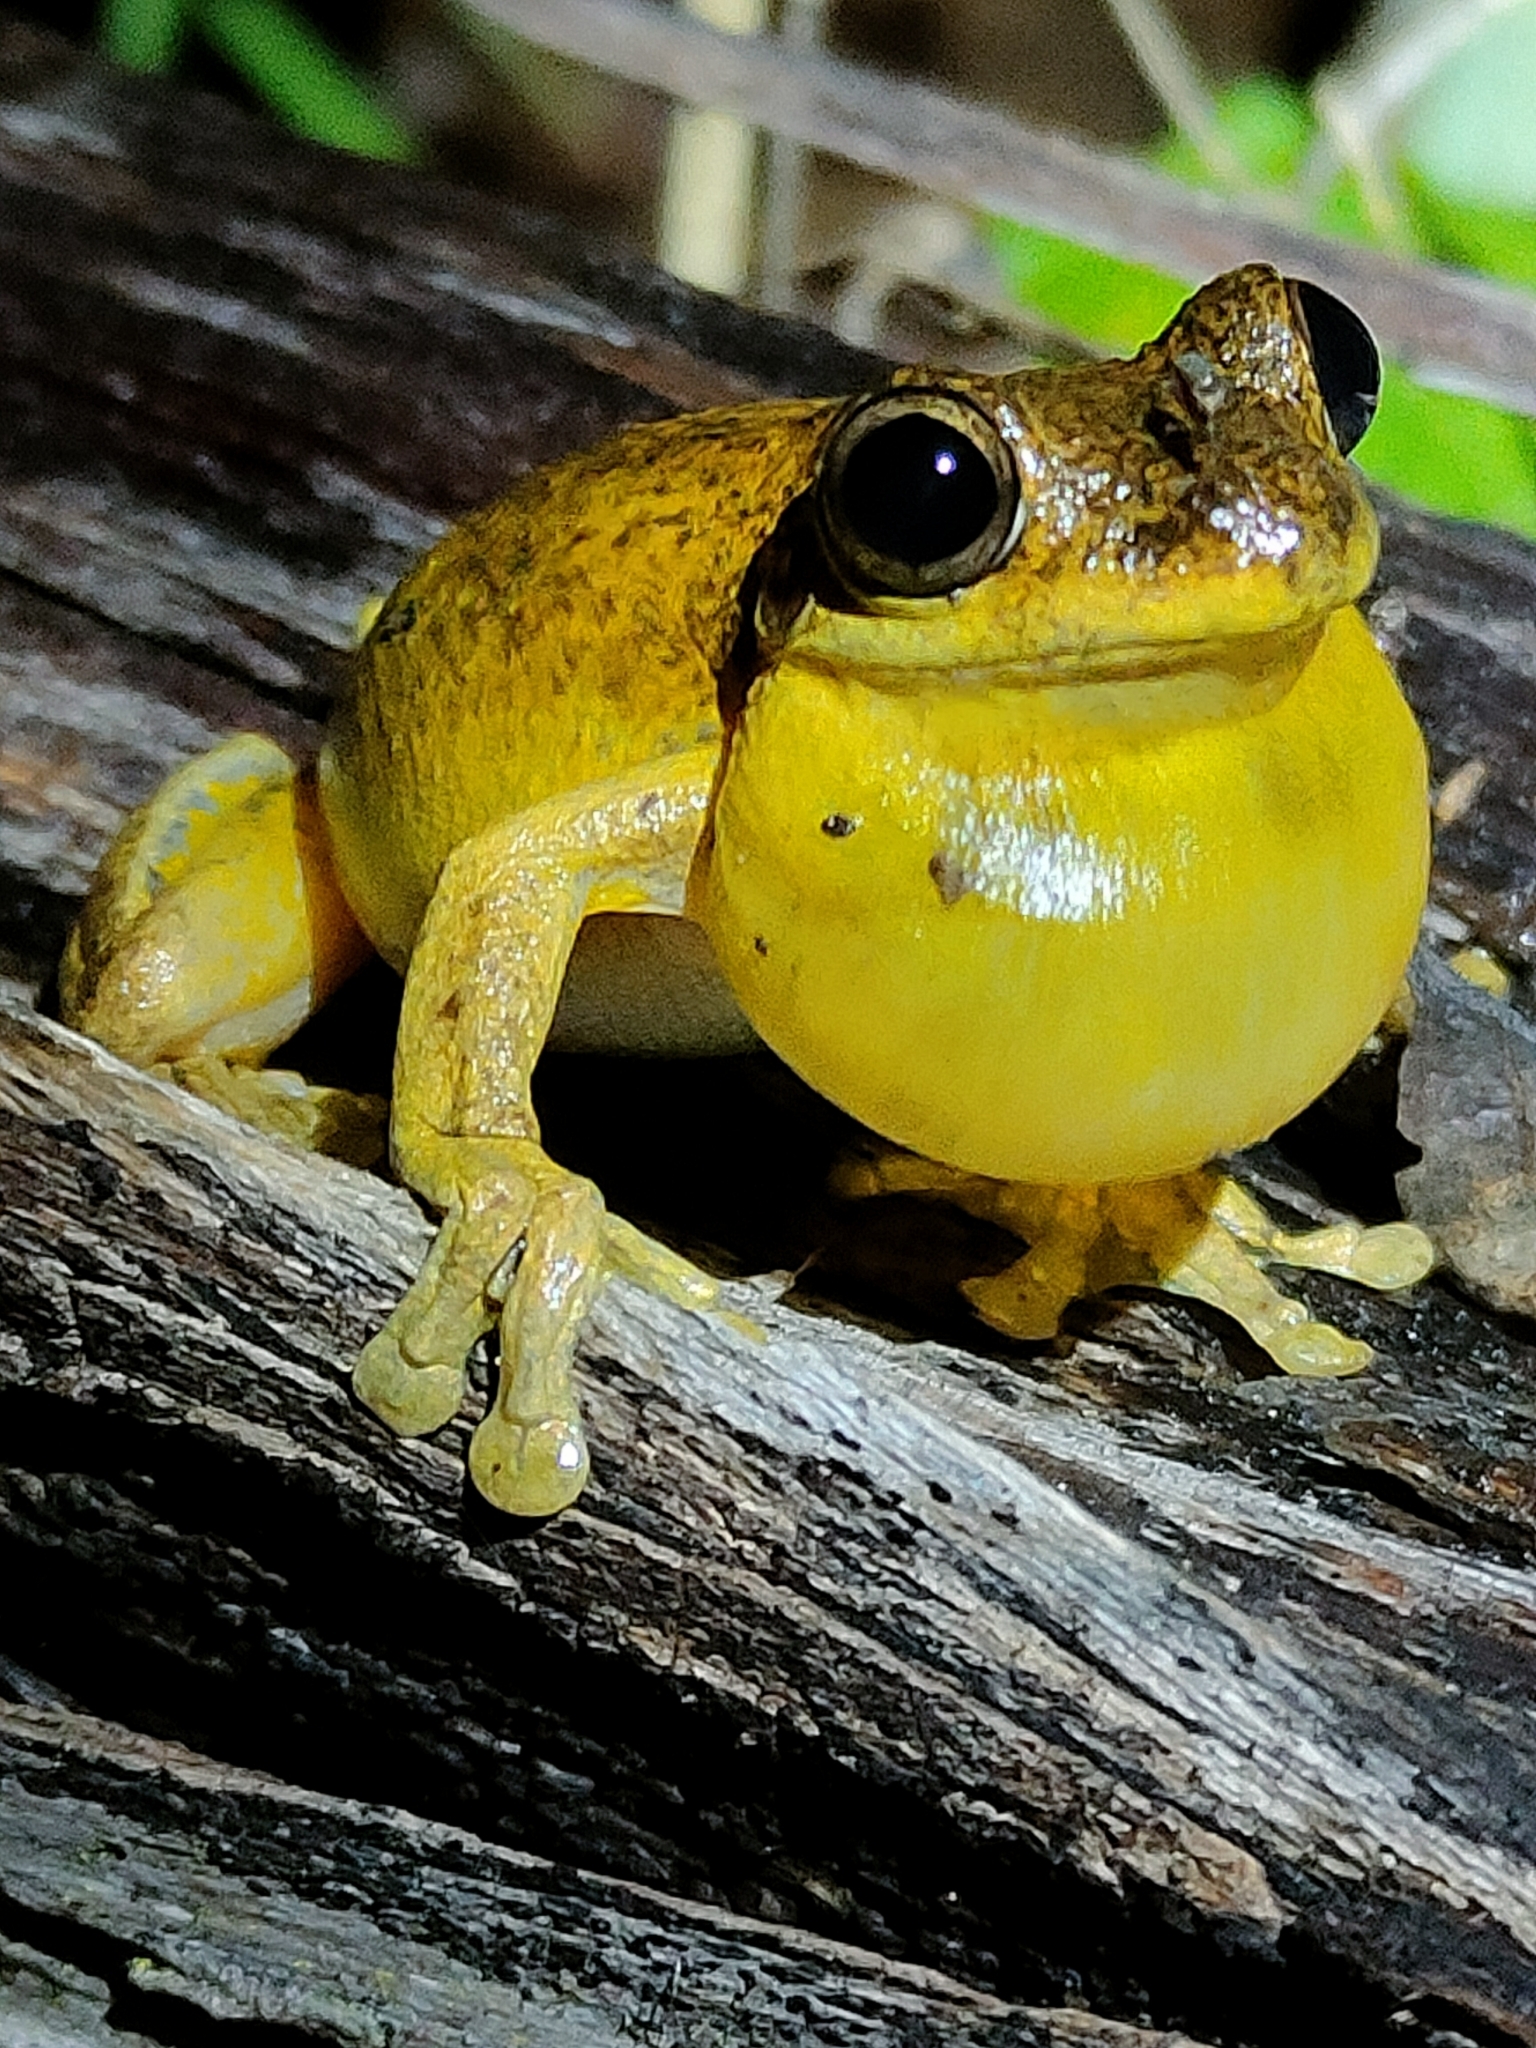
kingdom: Animalia
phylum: Chordata
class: Amphibia
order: Anura
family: Pelodryadidae
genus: Litoria
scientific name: Litoria tyleri
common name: Laughing tree frog
